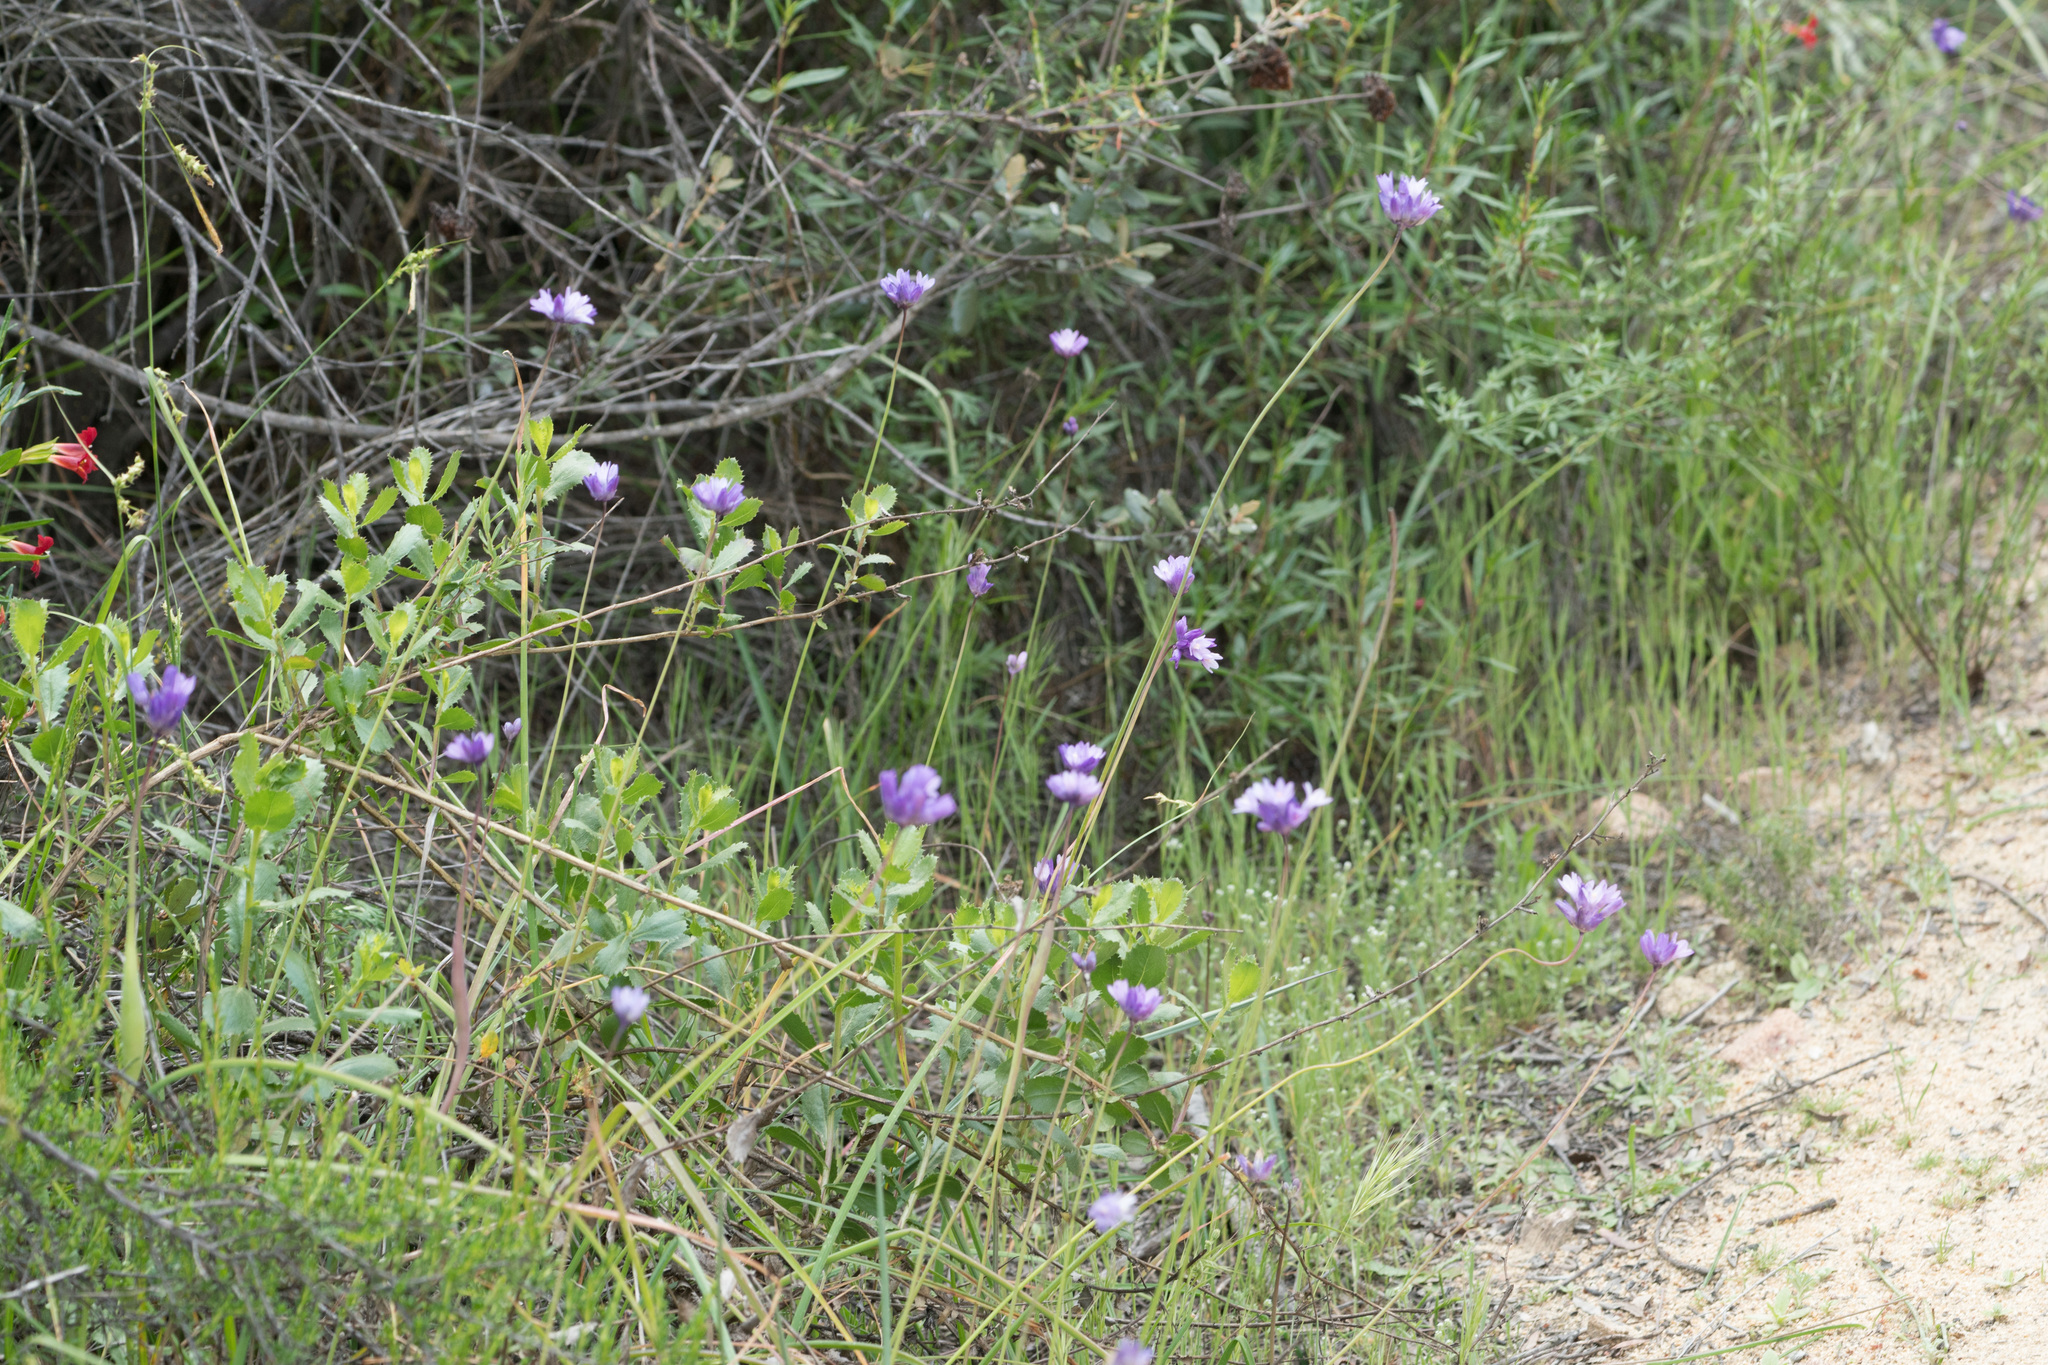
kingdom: Plantae
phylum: Tracheophyta
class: Liliopsida
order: Asparagales
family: Asparagaceae
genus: Dipterostemon
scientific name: Dipterostemon capitatus
